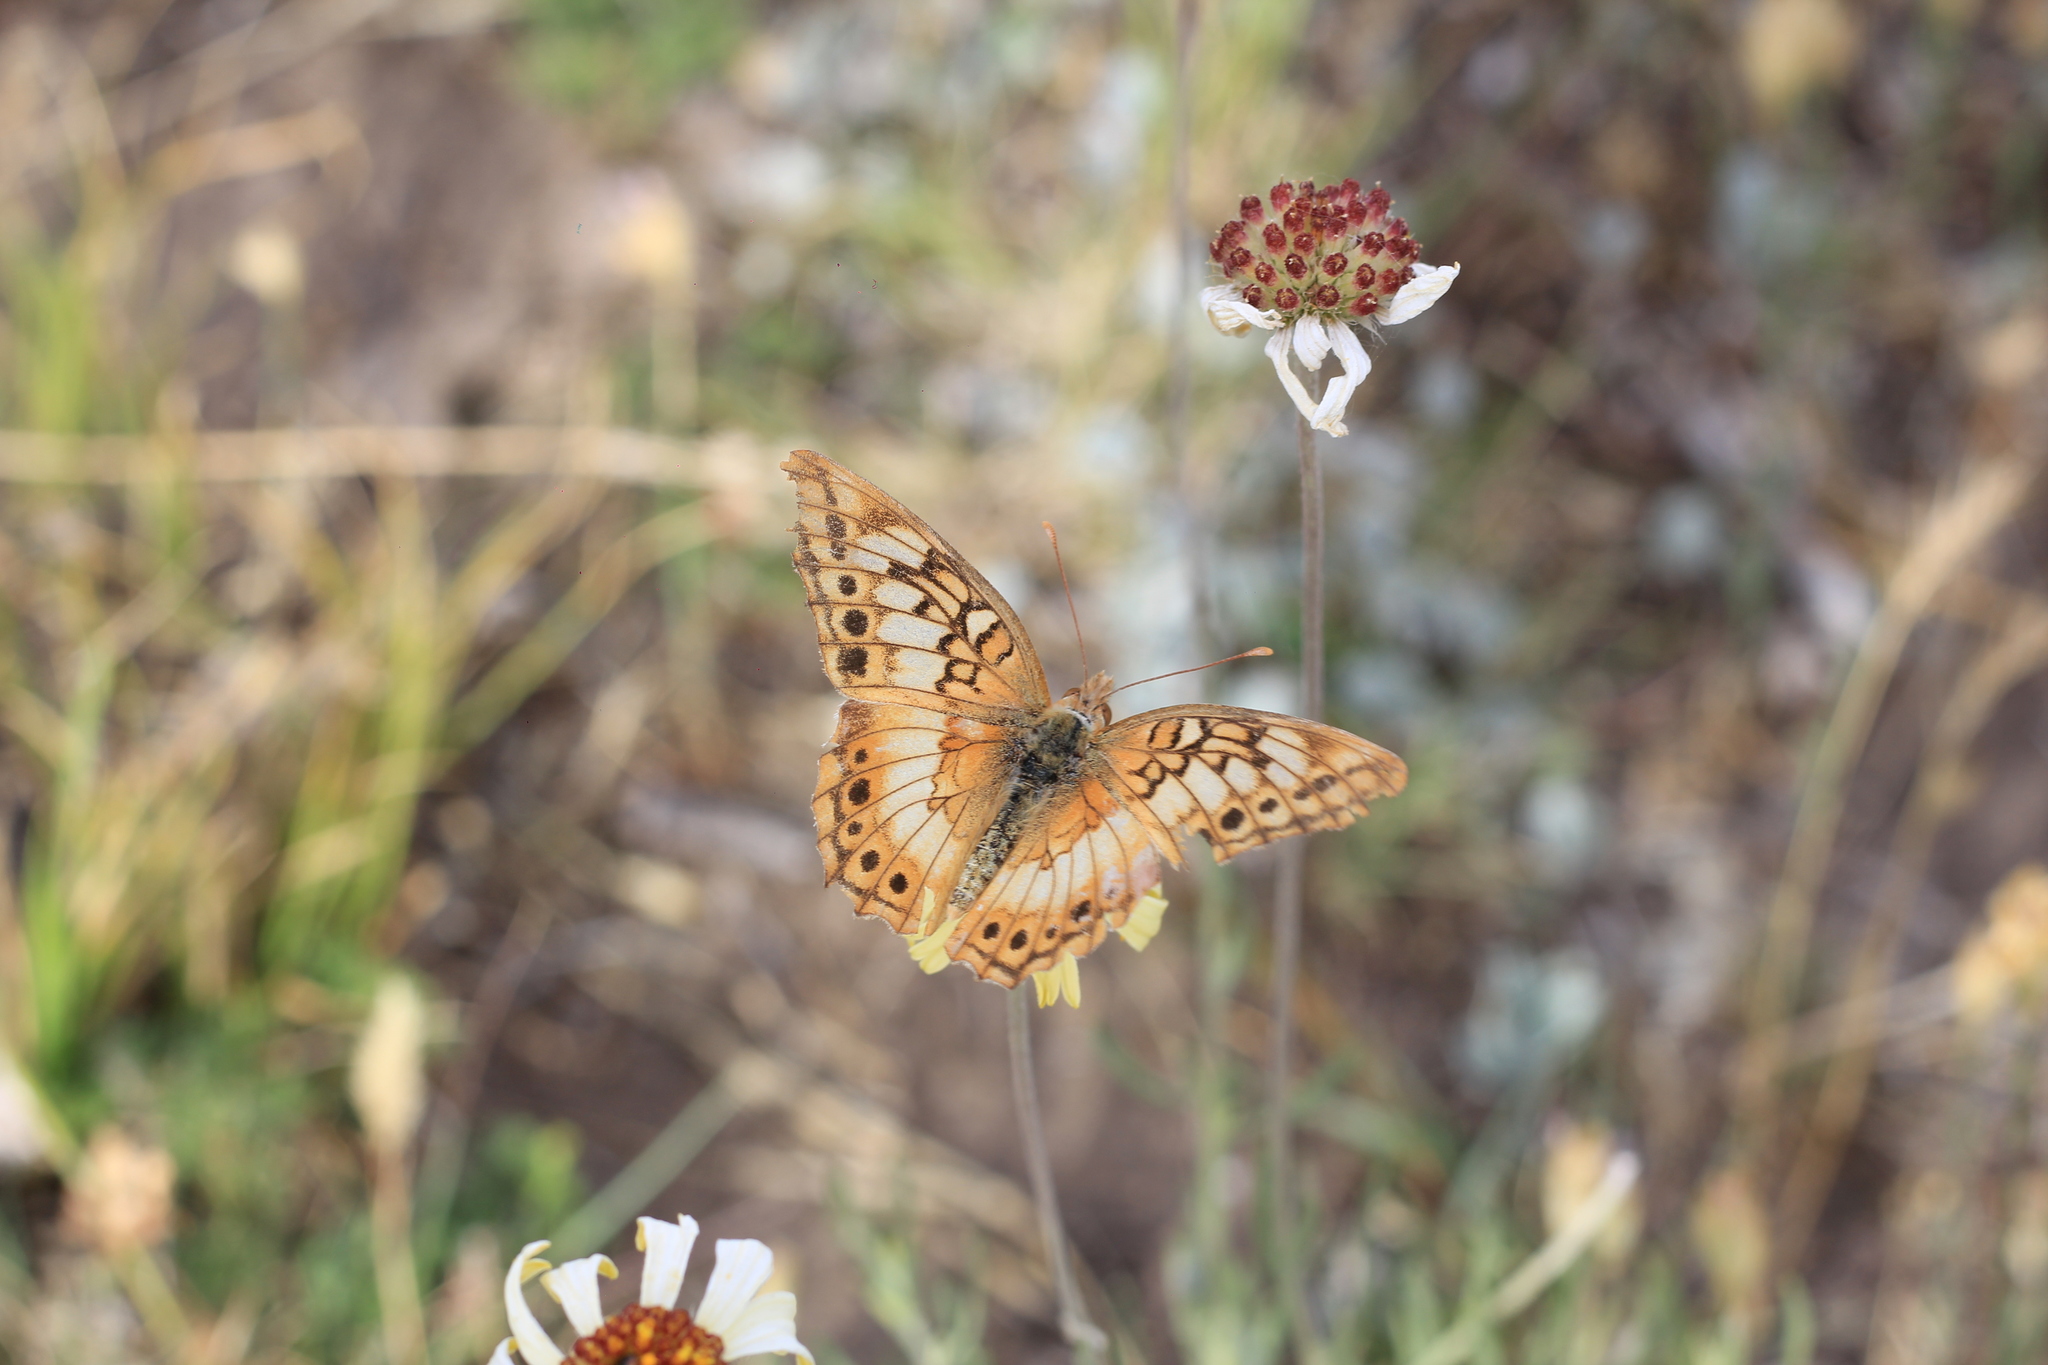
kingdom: Animalia
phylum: Arthropoda
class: Insecta
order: Lepidoptera
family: Nymphalidae
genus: Euptoieta
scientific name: Euptoieta hortensia
